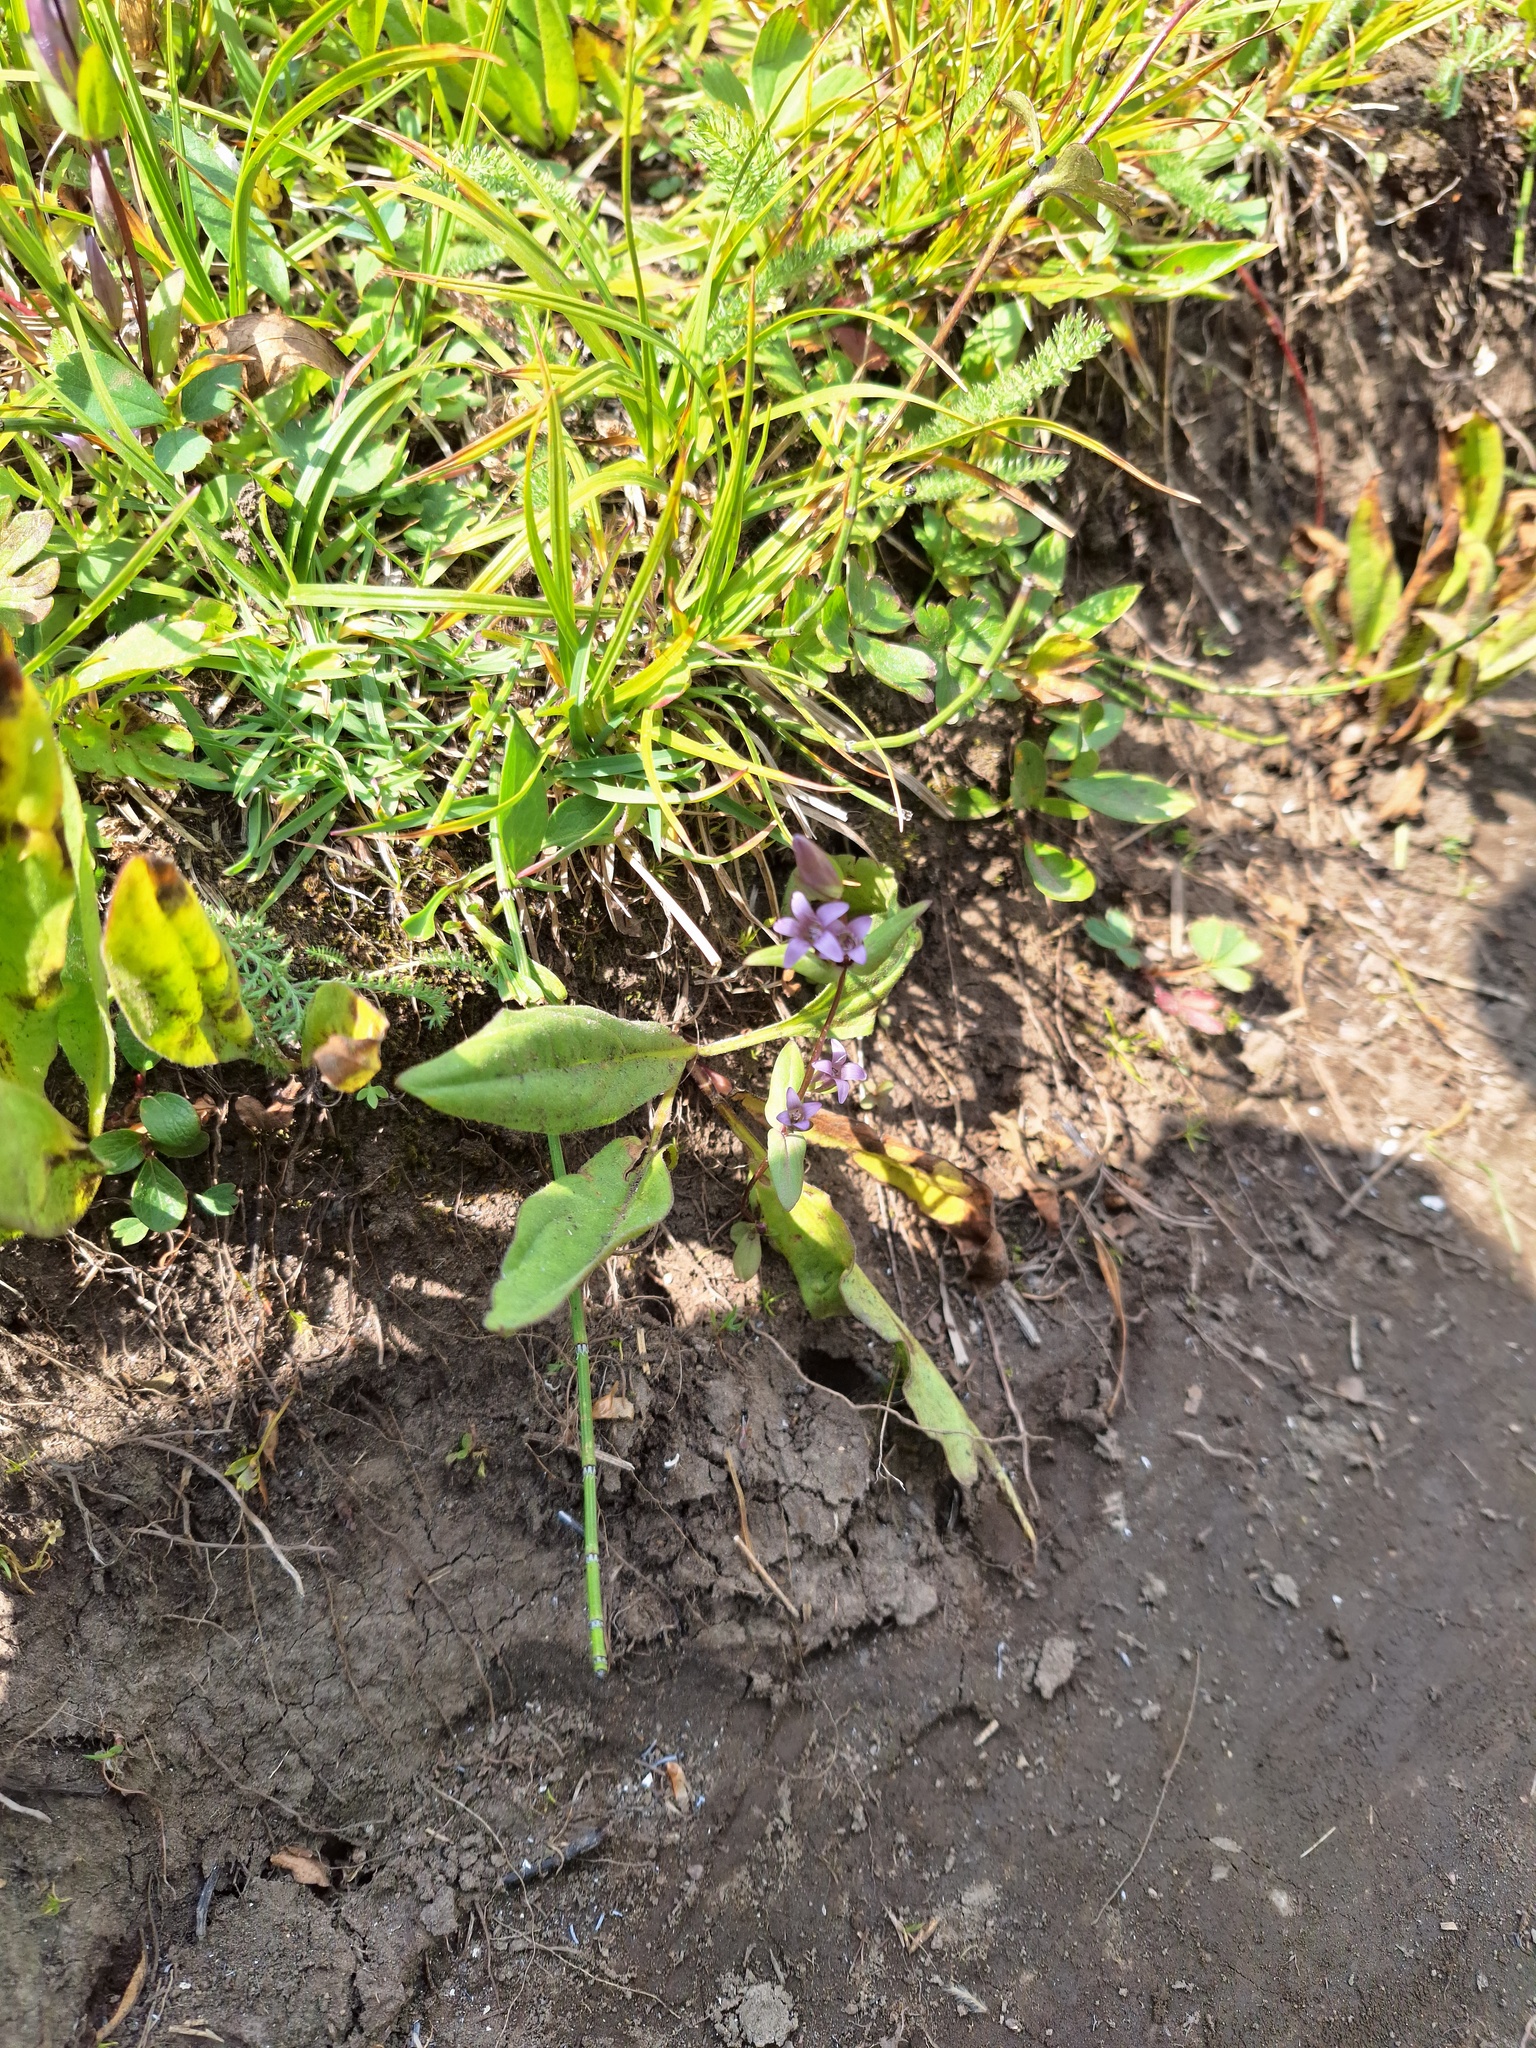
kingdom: Plantae
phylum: Tracheophyta
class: Magnoliopsida
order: Gentianales
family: Gentianaceae
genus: Gentianella
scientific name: Gentianella amarella
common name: Autumn gentian
